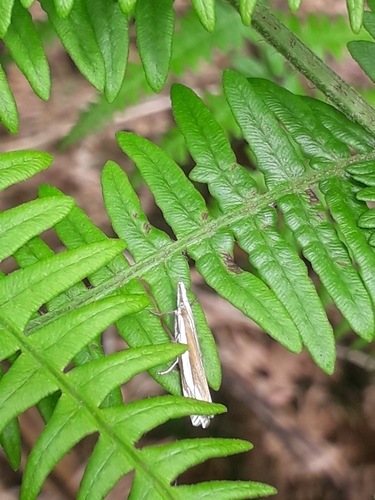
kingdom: Animalia
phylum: Arthropoda
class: Insecta
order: Lepidoptera
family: Crambidae
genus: Crambus
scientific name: Crambus pascuella
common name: Inlaid grass-veneer
